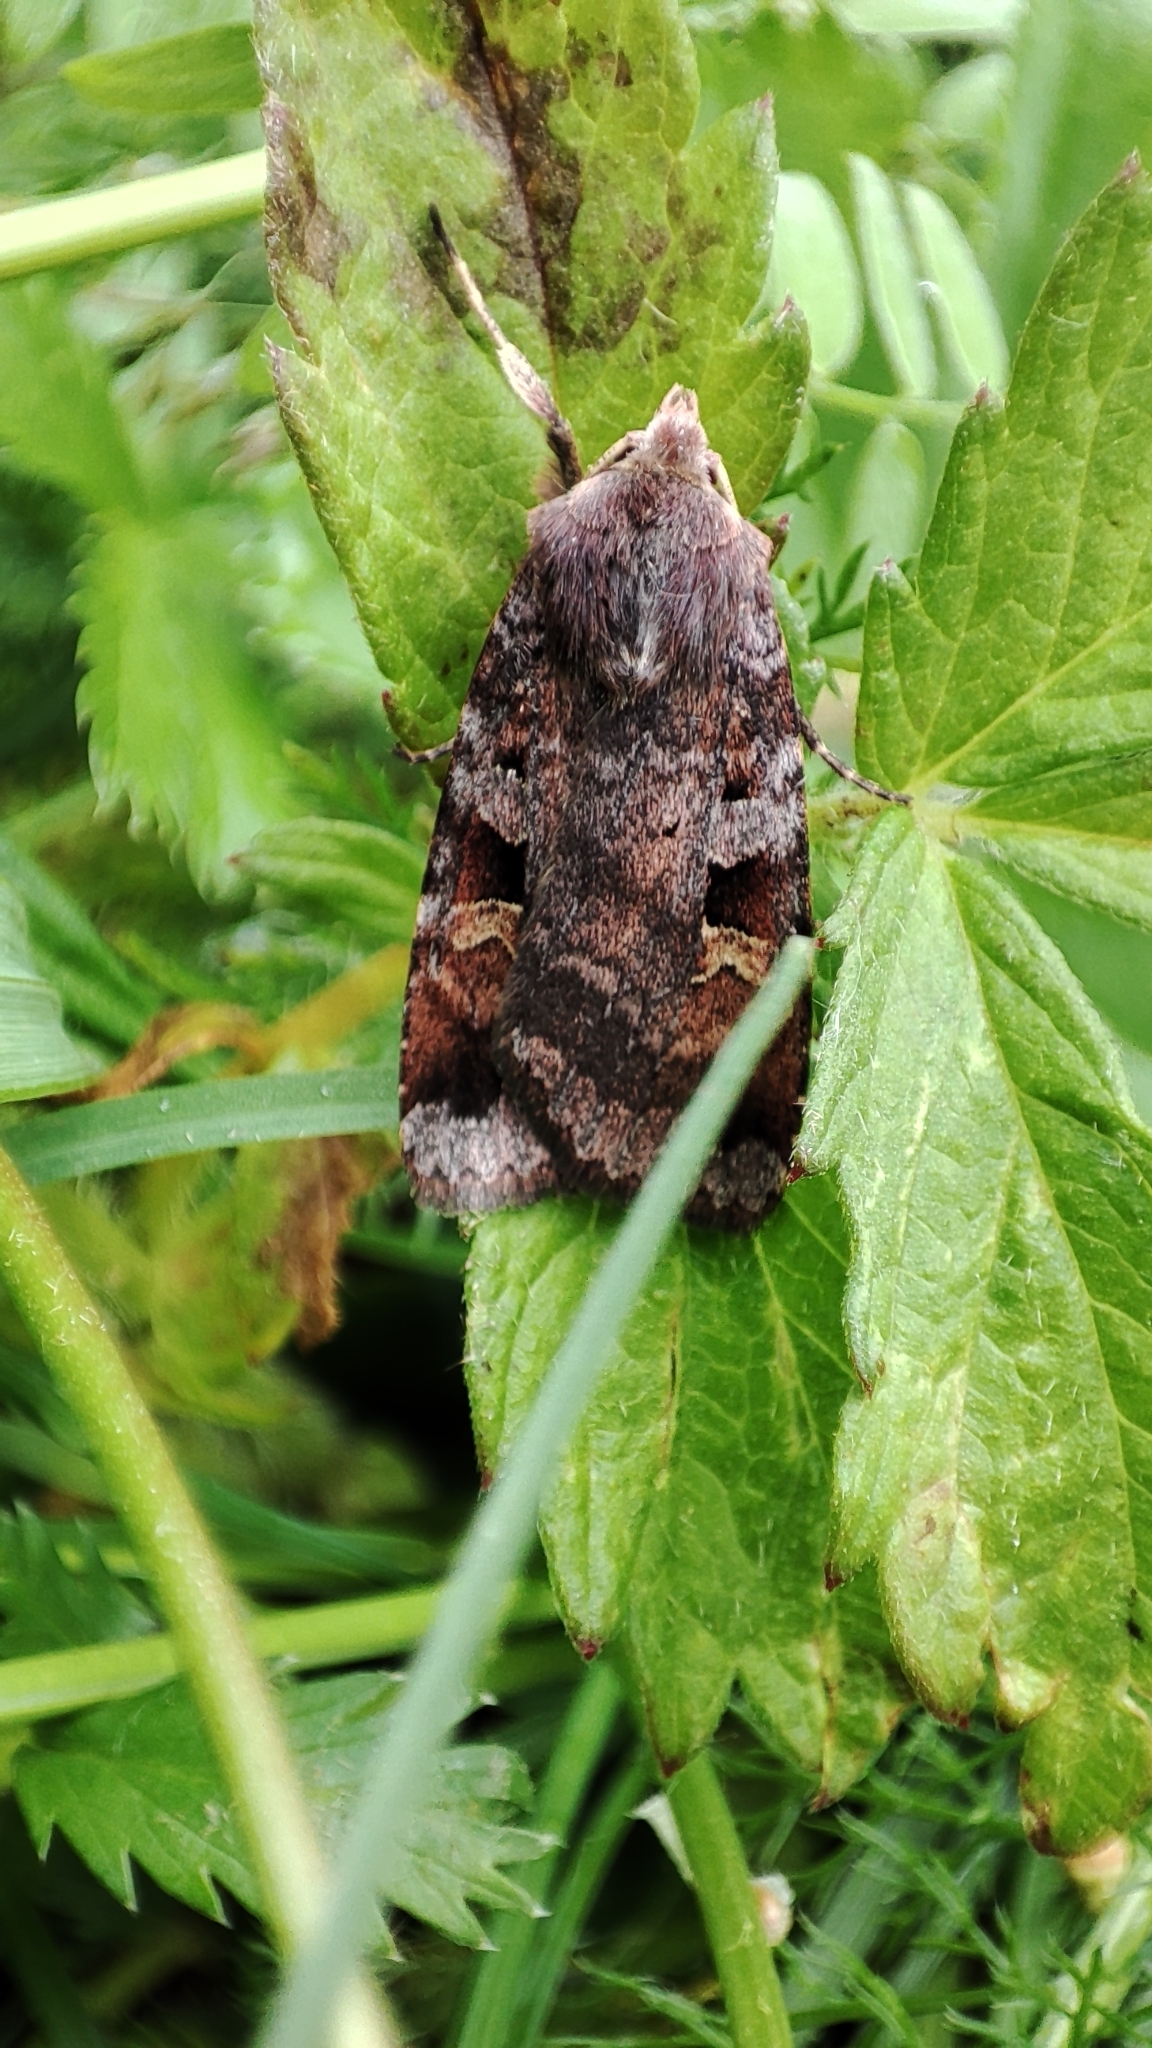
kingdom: Animalia
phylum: Arthropoda
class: Insecta
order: Lepidoptera
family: Noctuidae
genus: Diarsia
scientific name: Diarsia brunnea
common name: Purple clay
